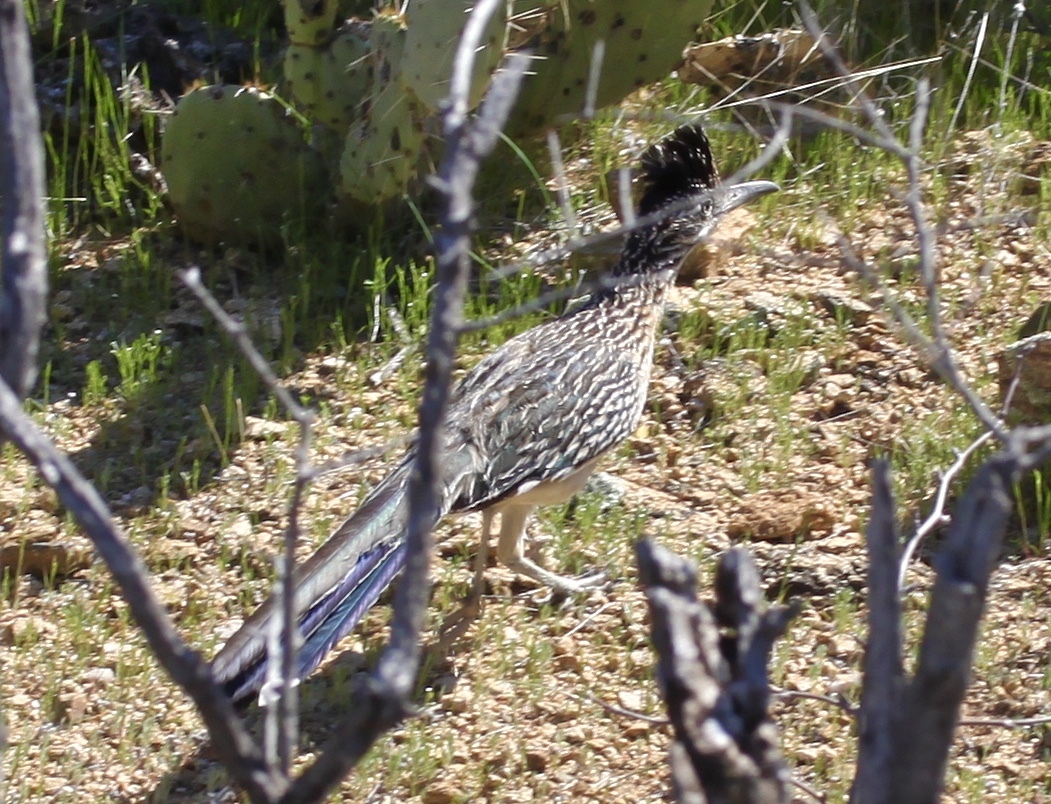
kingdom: Animalia
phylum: Chordata
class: Aves
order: Cuculiformes
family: Cuculidae
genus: Geococcyx
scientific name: Geococcyx californianus
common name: Greater roadrunner
